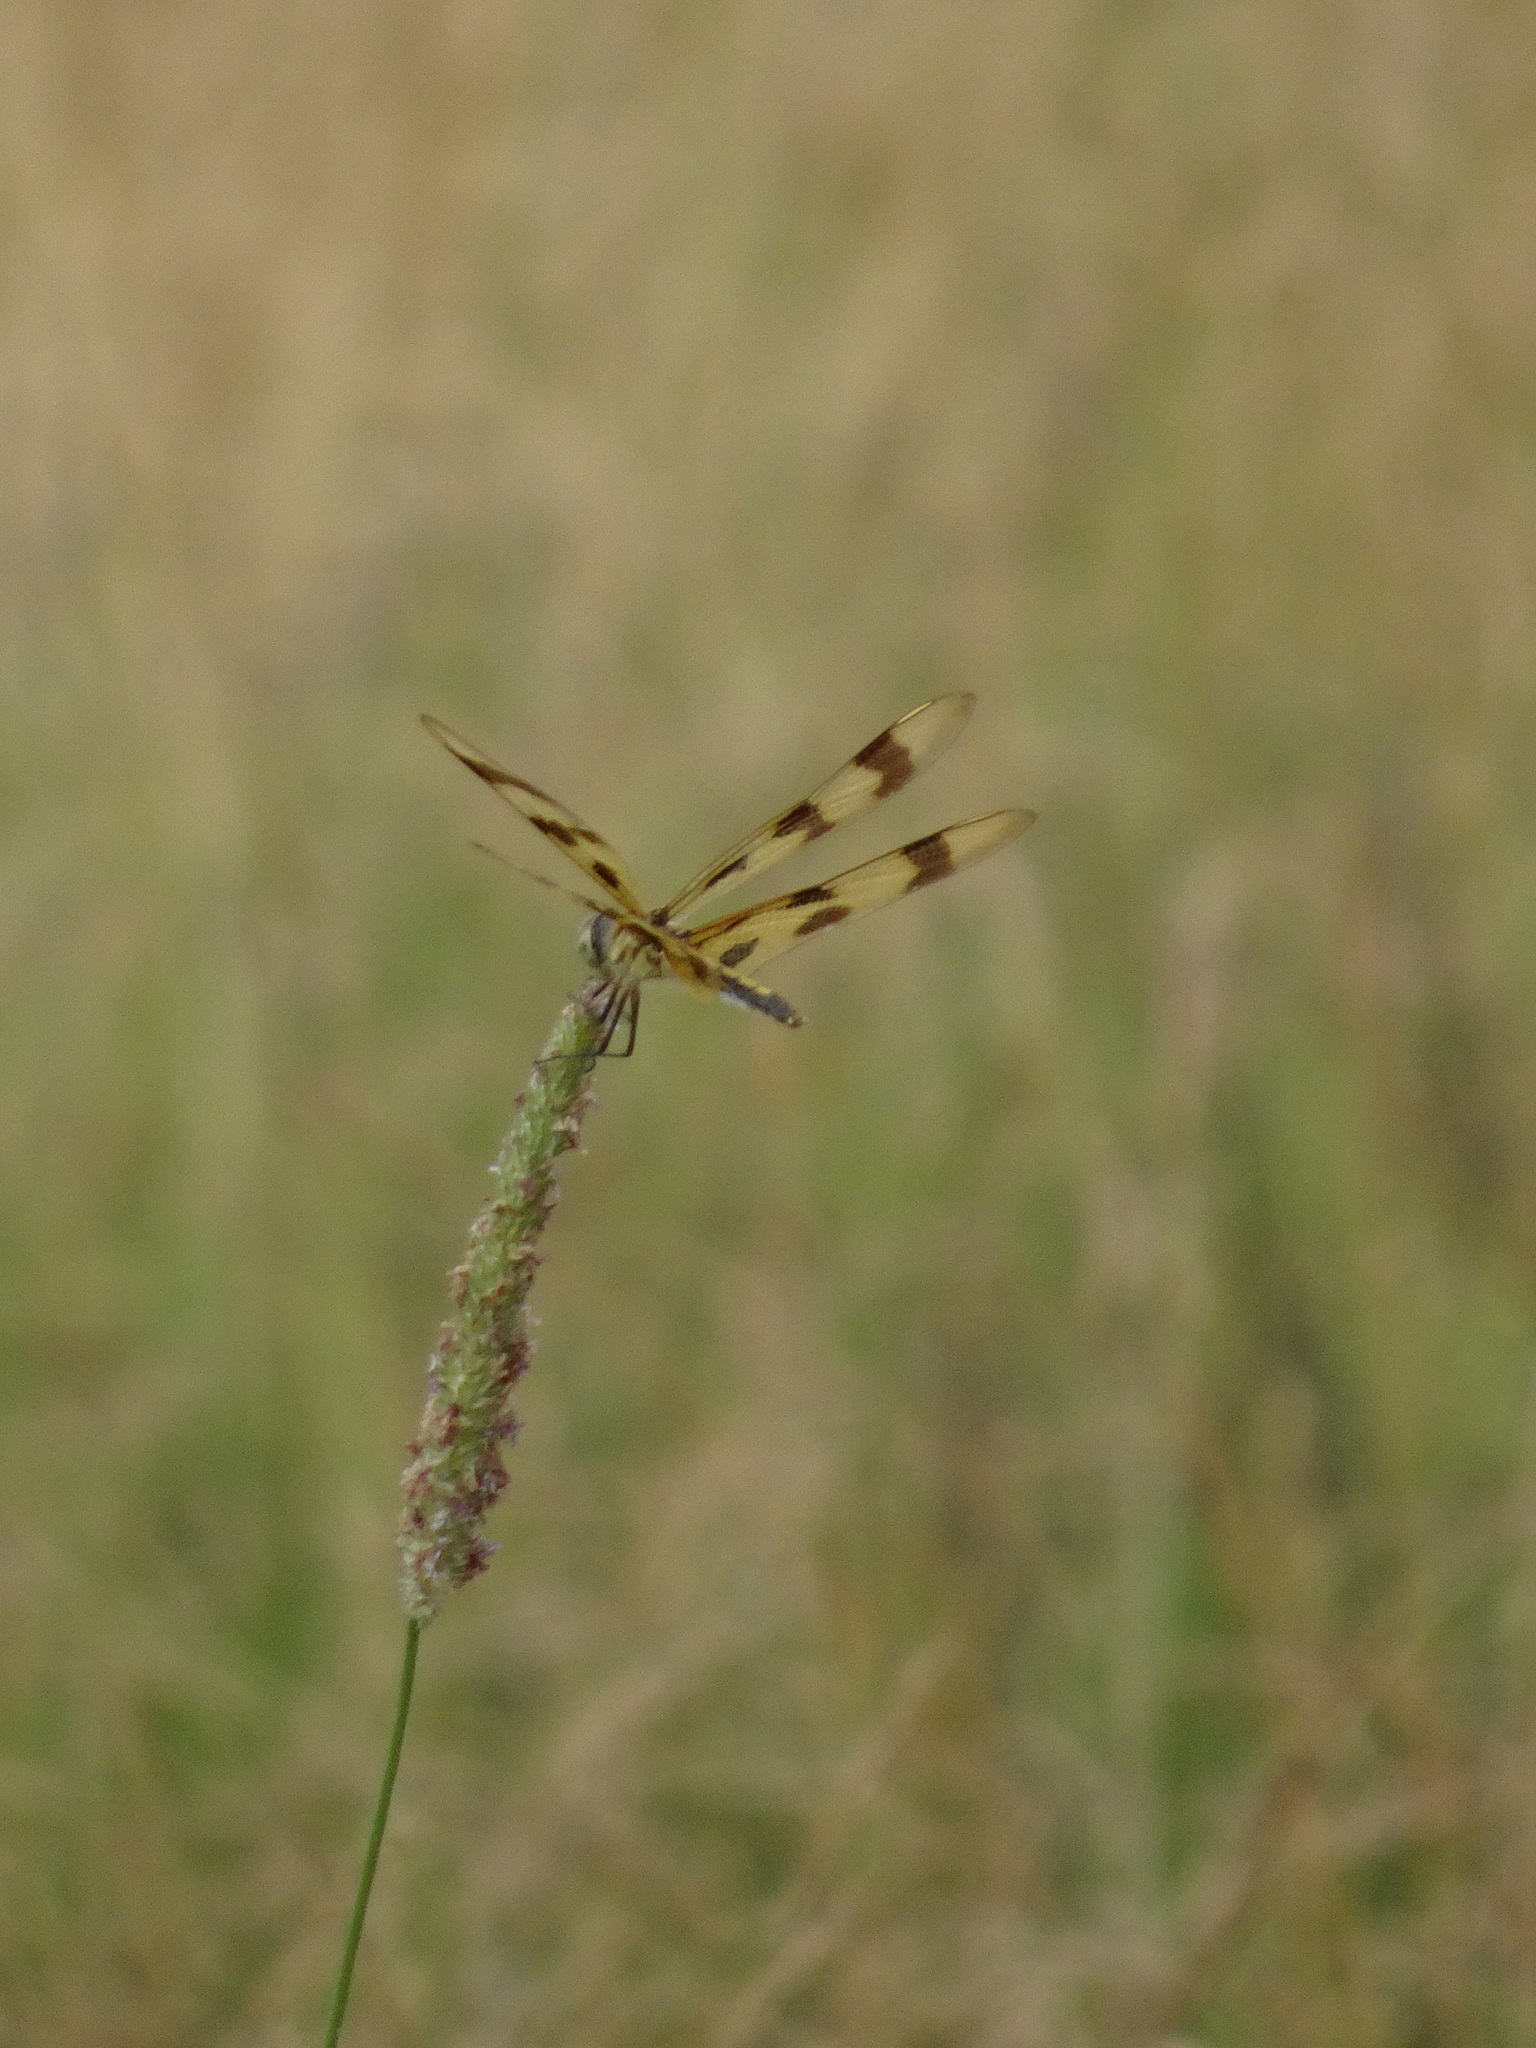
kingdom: Animalia
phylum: Arthropoda
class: Insecta
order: Odonata
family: Libellulidae
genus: Celithemis
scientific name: Celithemis eponina
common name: Halloween pennant
